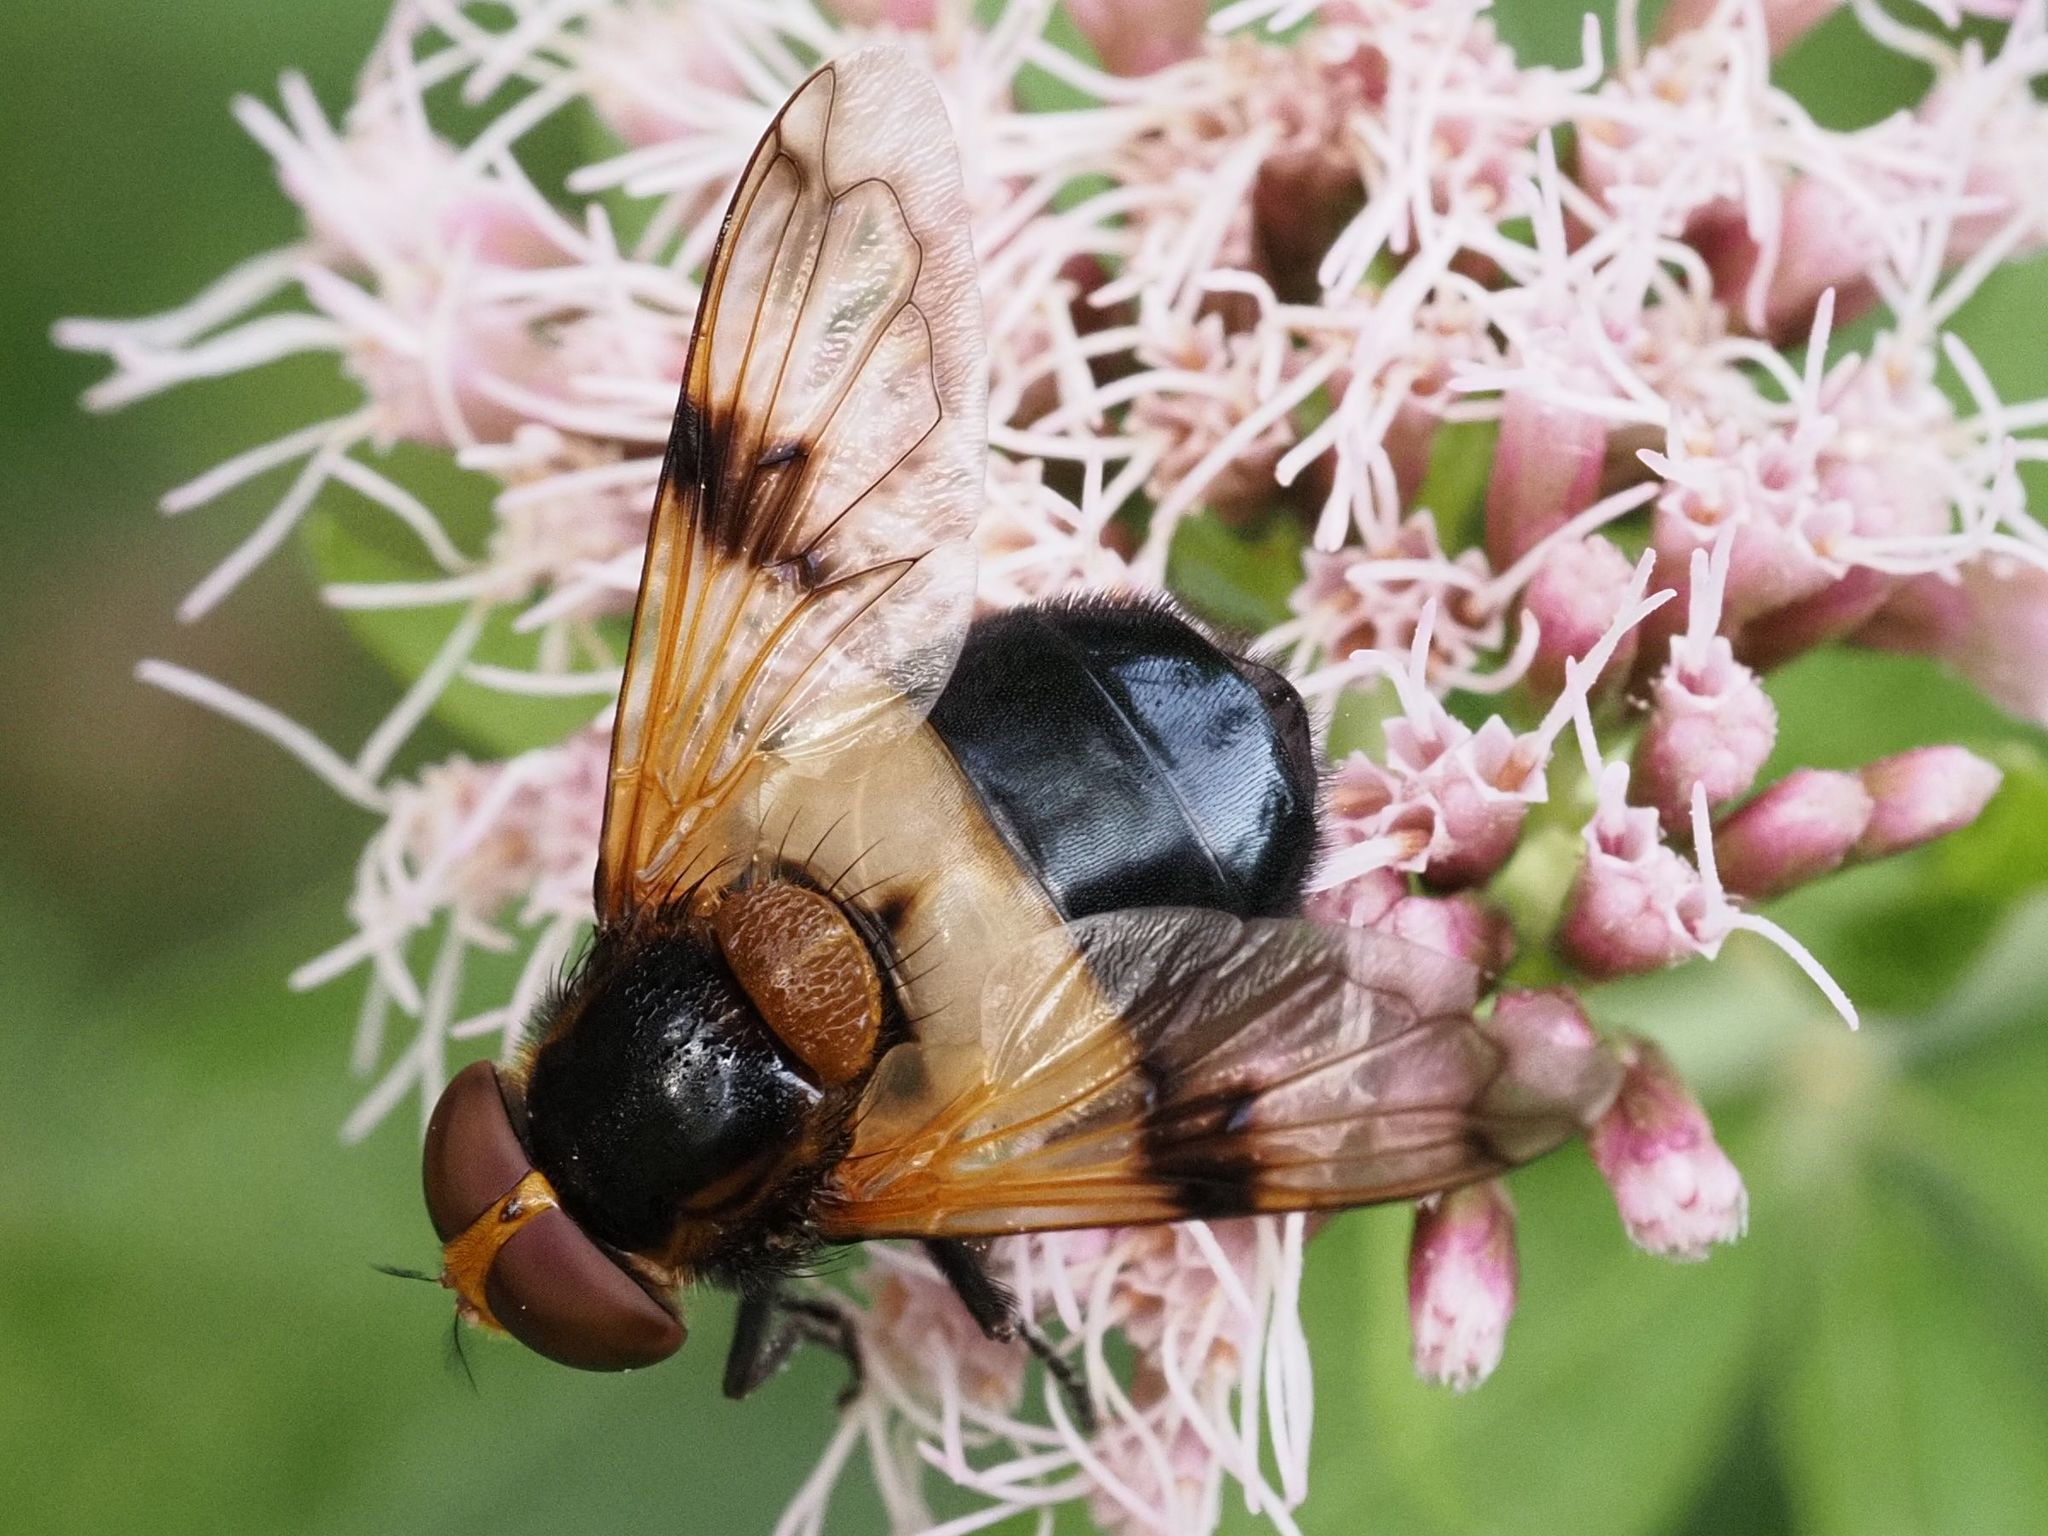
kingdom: Animalia
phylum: Arthropoda
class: Insecta
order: Diptera
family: Syrphidae
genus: Volucella
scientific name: Volucella pellucens
